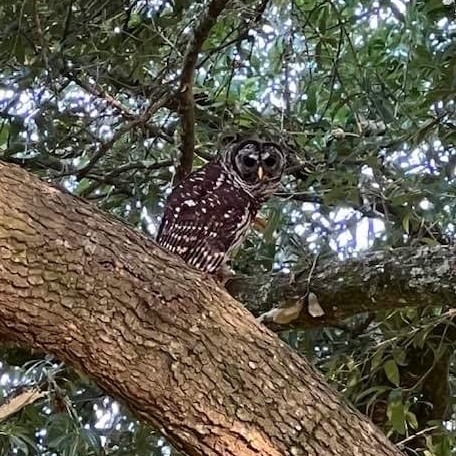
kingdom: Animalia
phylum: Chordata
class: Aves
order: Strigiformes
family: Strigidae
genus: Strix
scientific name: Strix varia
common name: Barred owl
